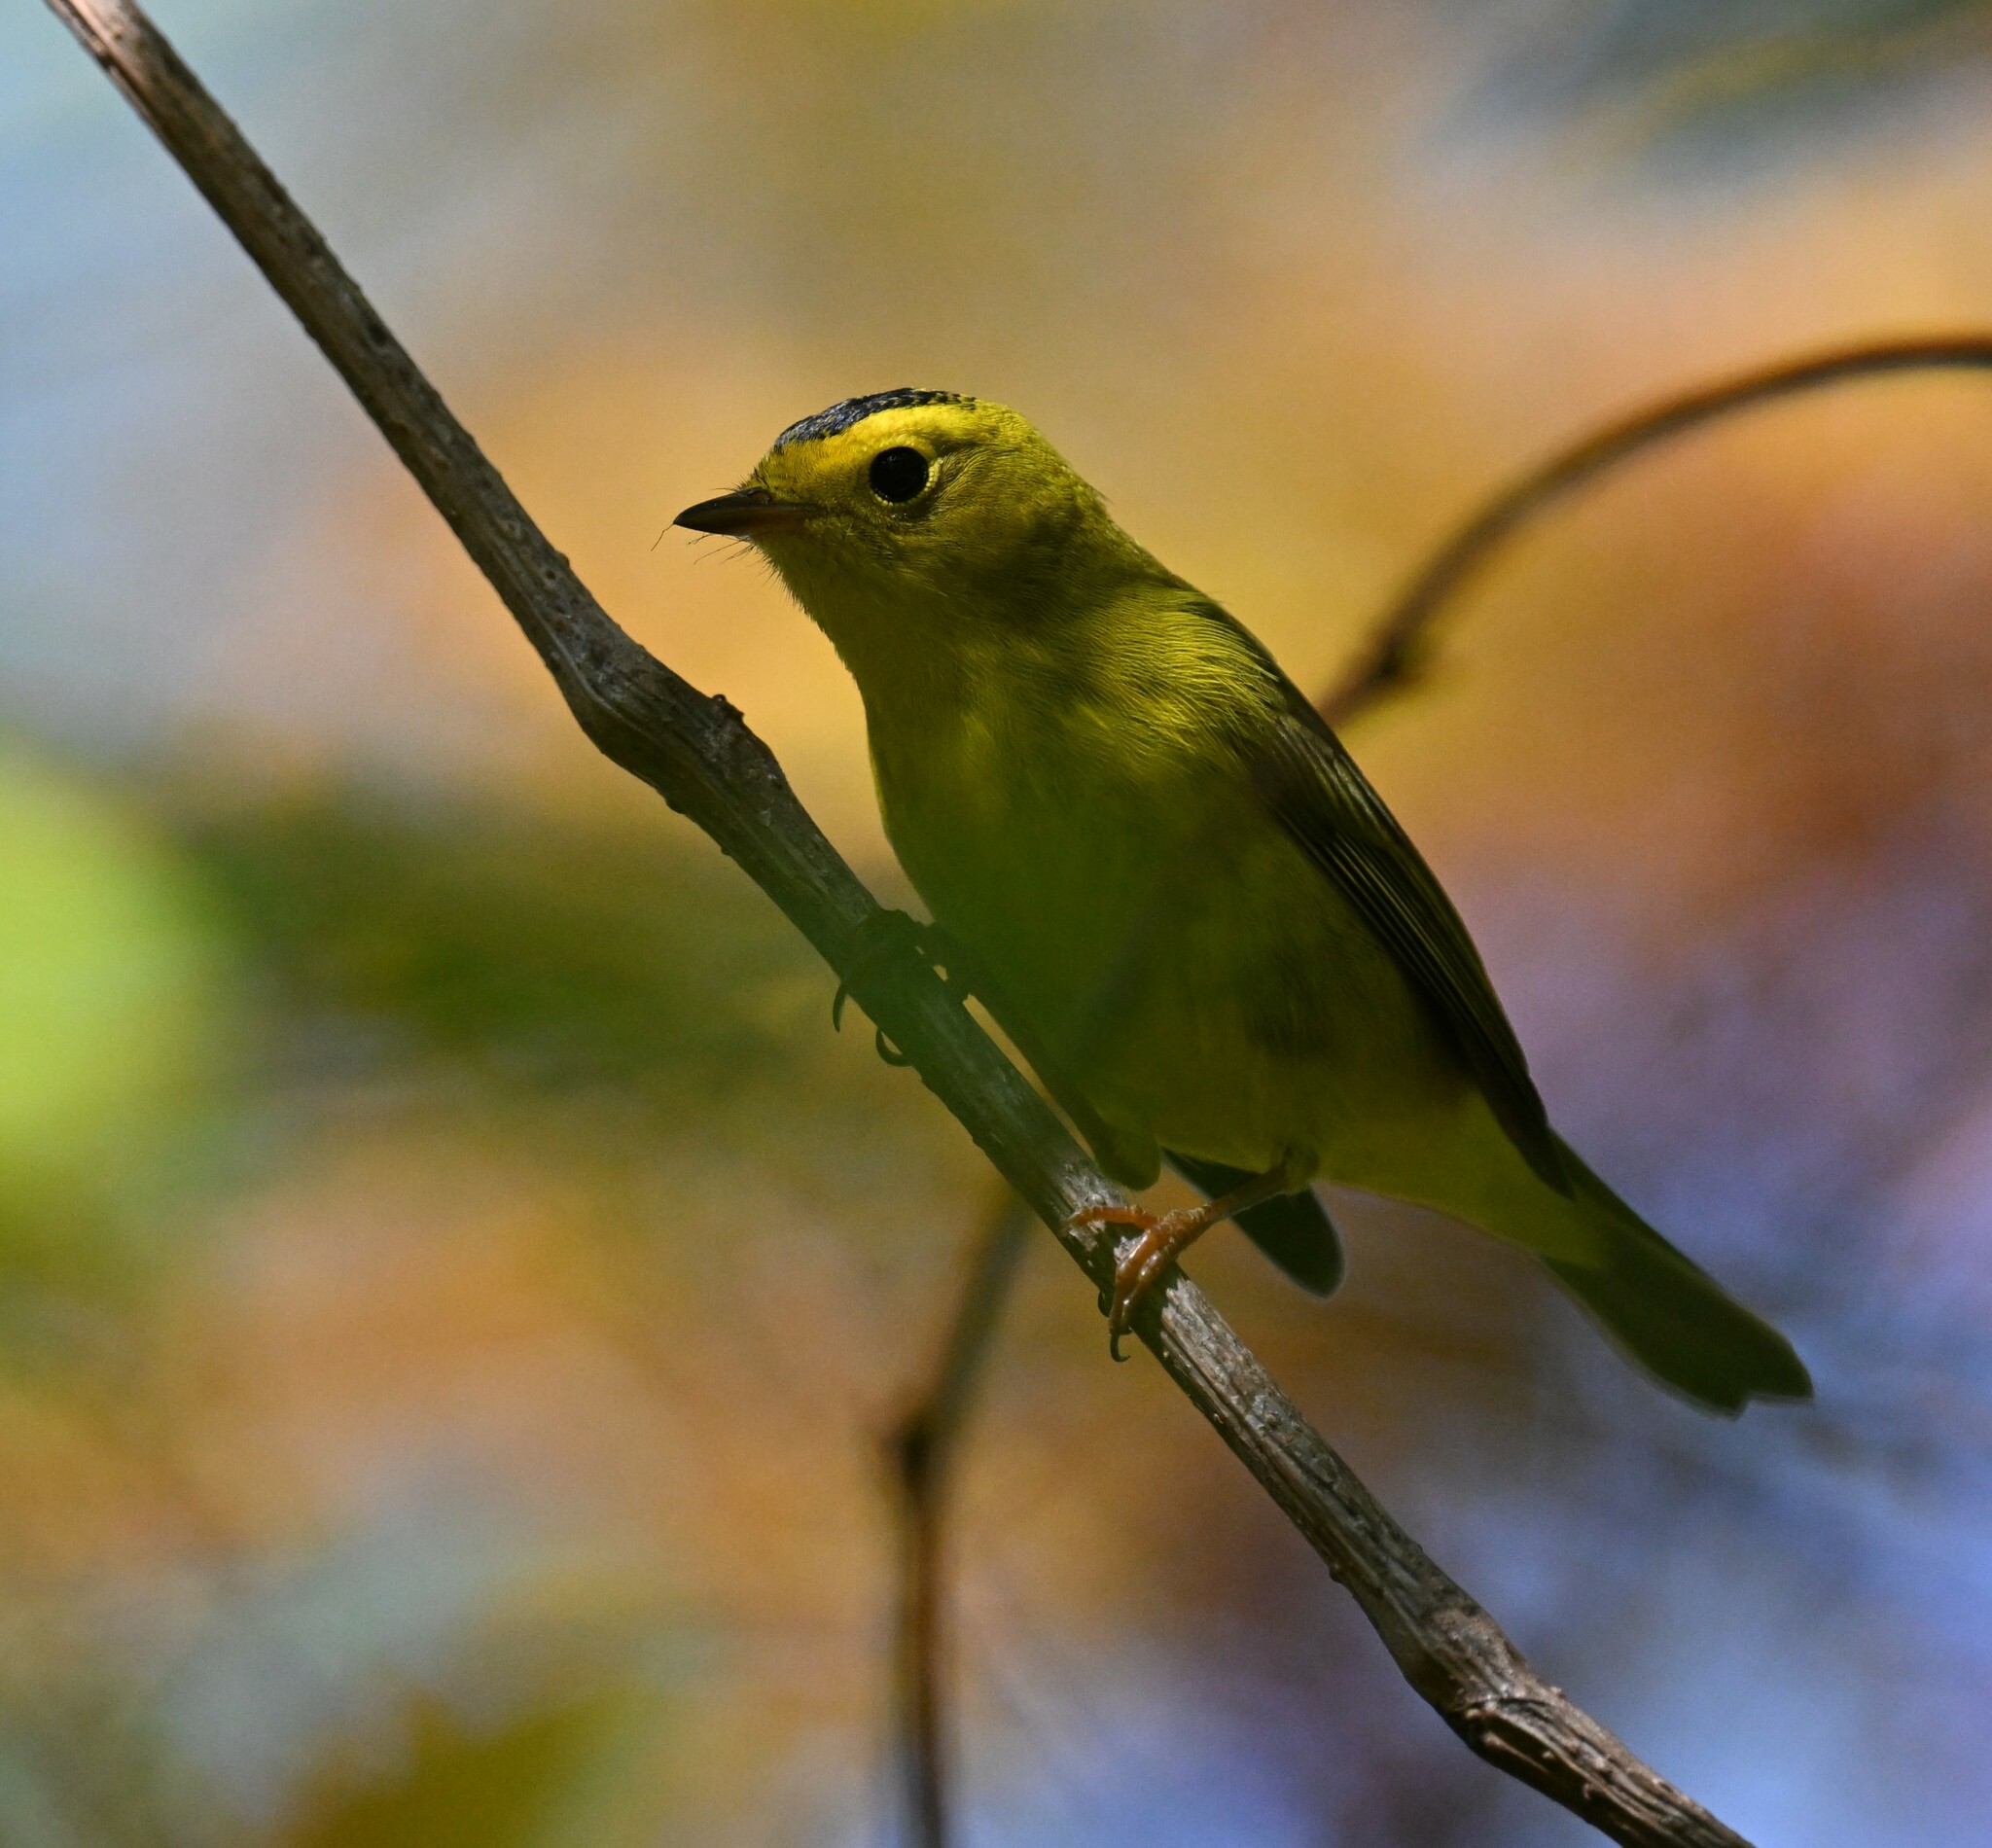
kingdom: Animalia
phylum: Chordata
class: Aves
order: Passeriformes
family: Parulidae
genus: Cardellina
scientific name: Cardellina pusilla
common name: Wilson's warbler
